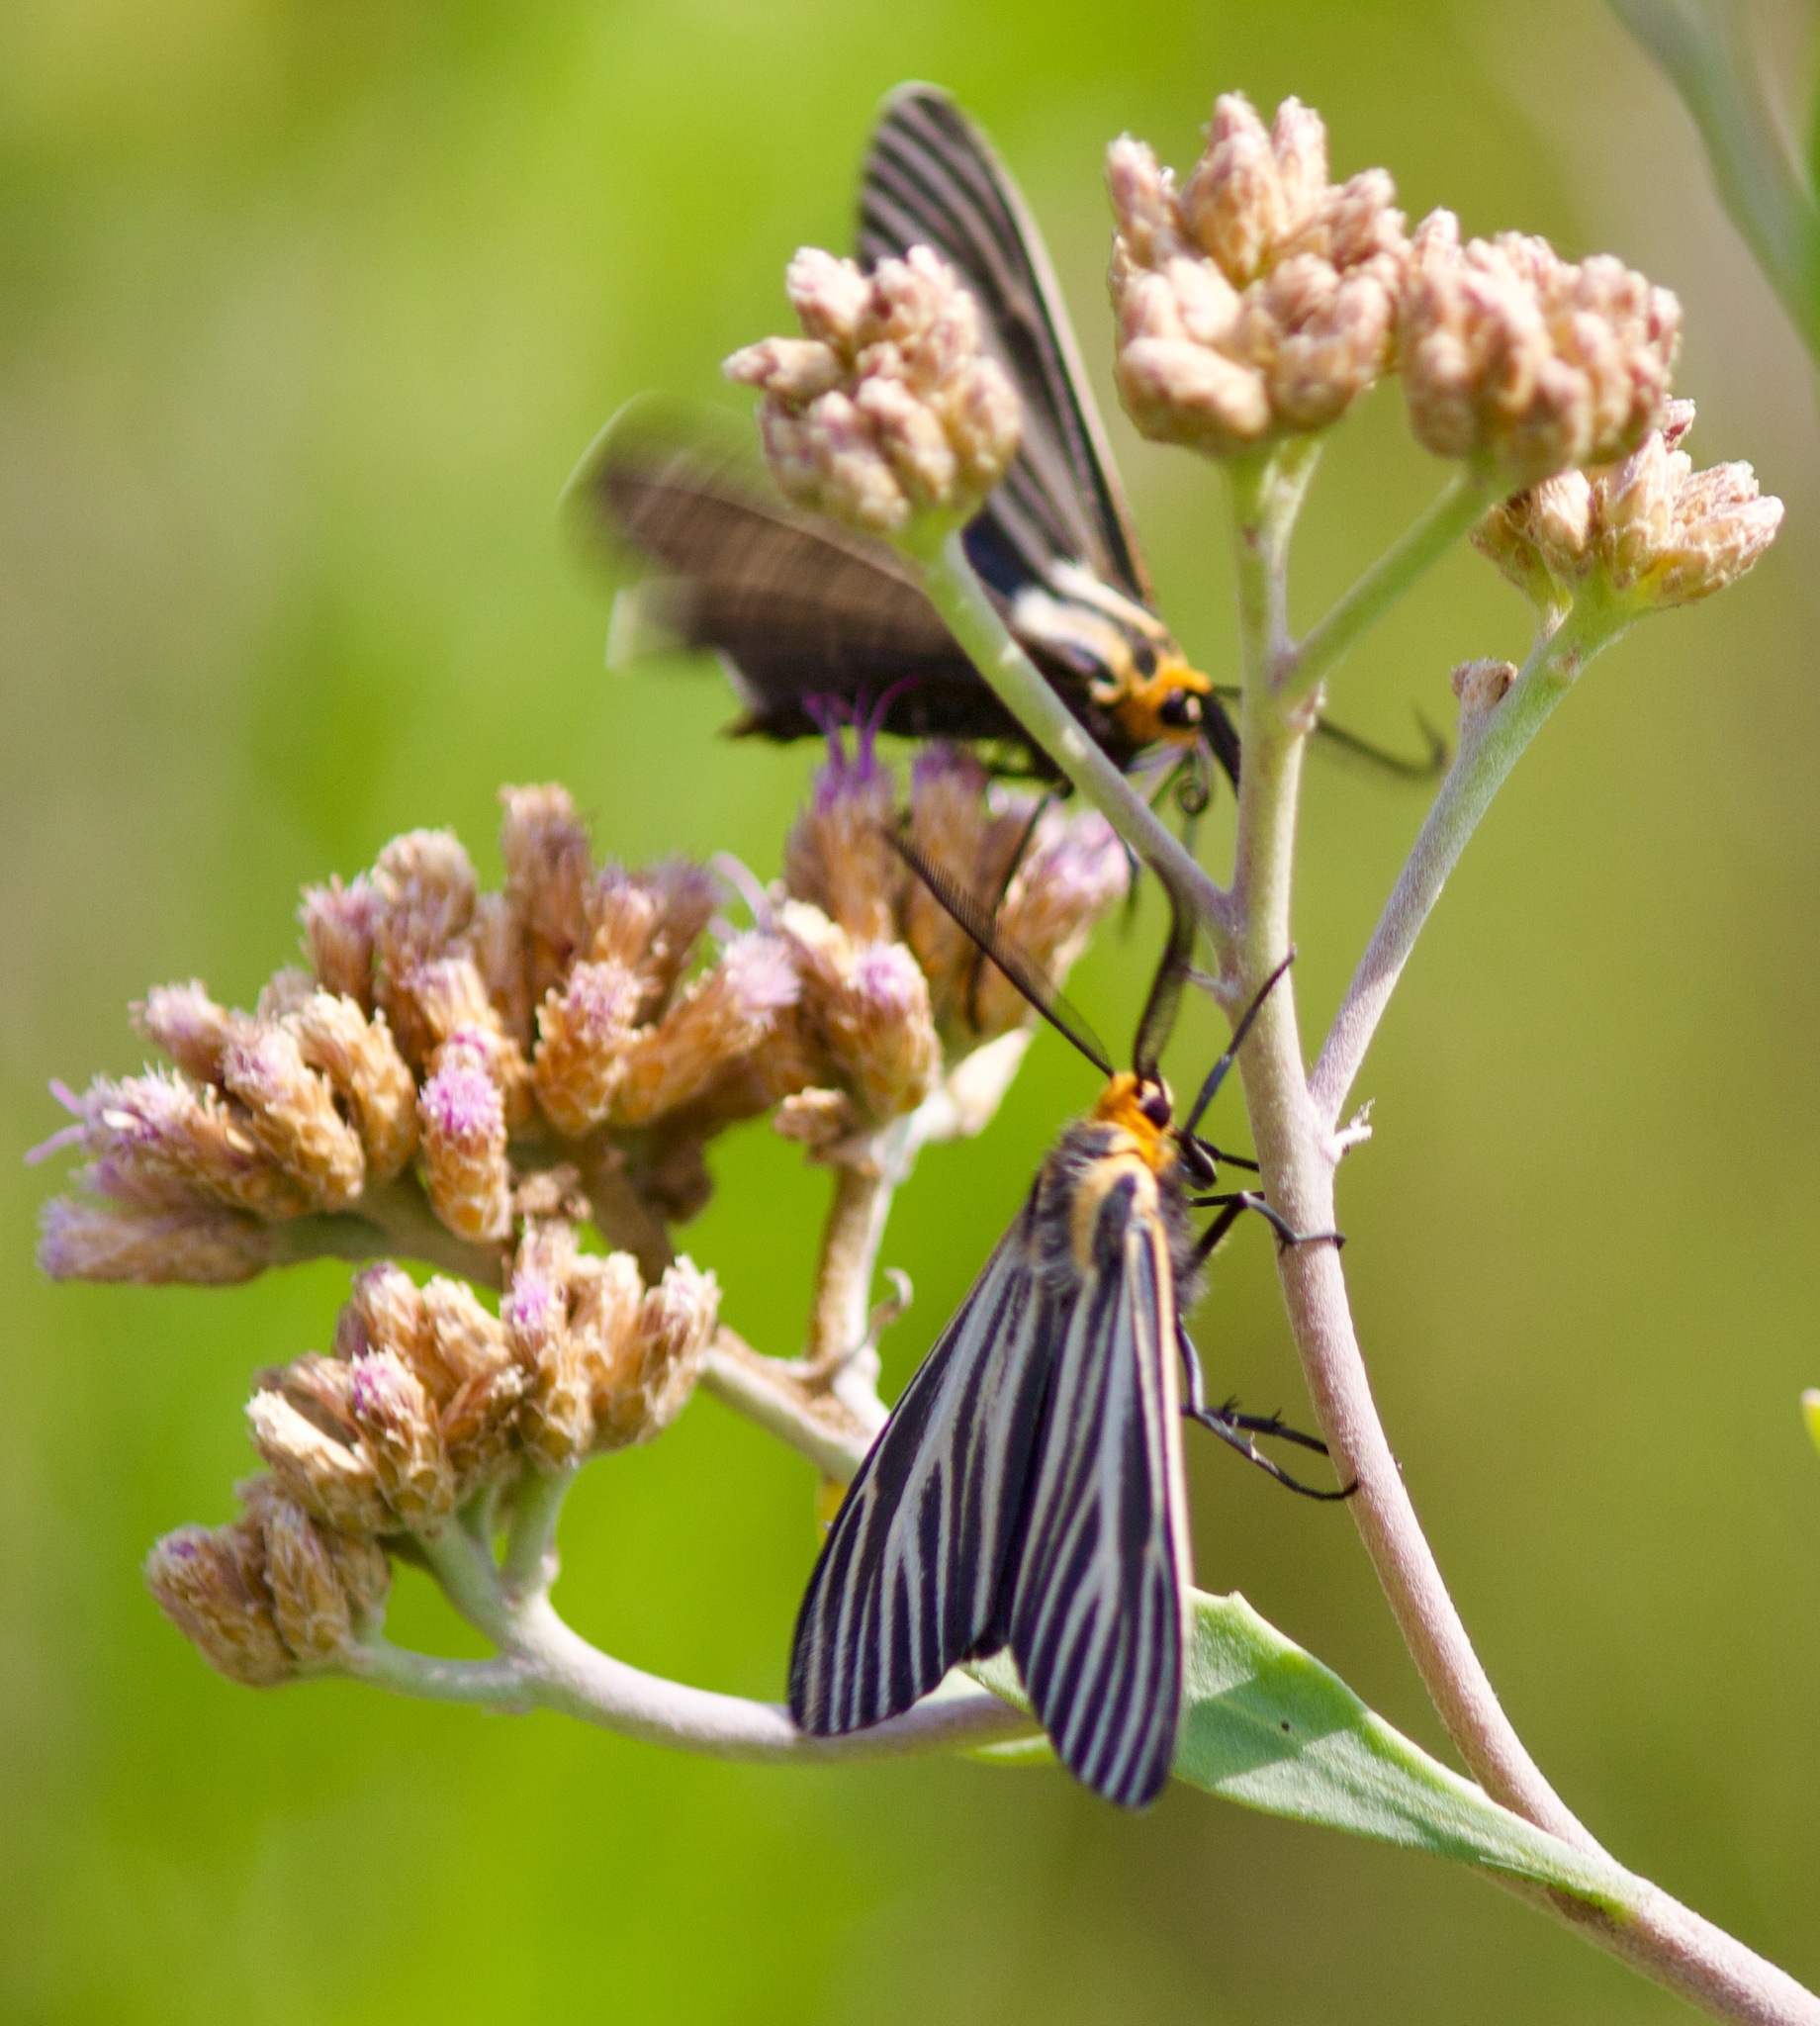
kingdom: Animalia
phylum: Arthropoda
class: Insecta
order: Lepidoptera
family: Erebidae
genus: Ctenucha
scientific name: Ctenucha vittigerum
